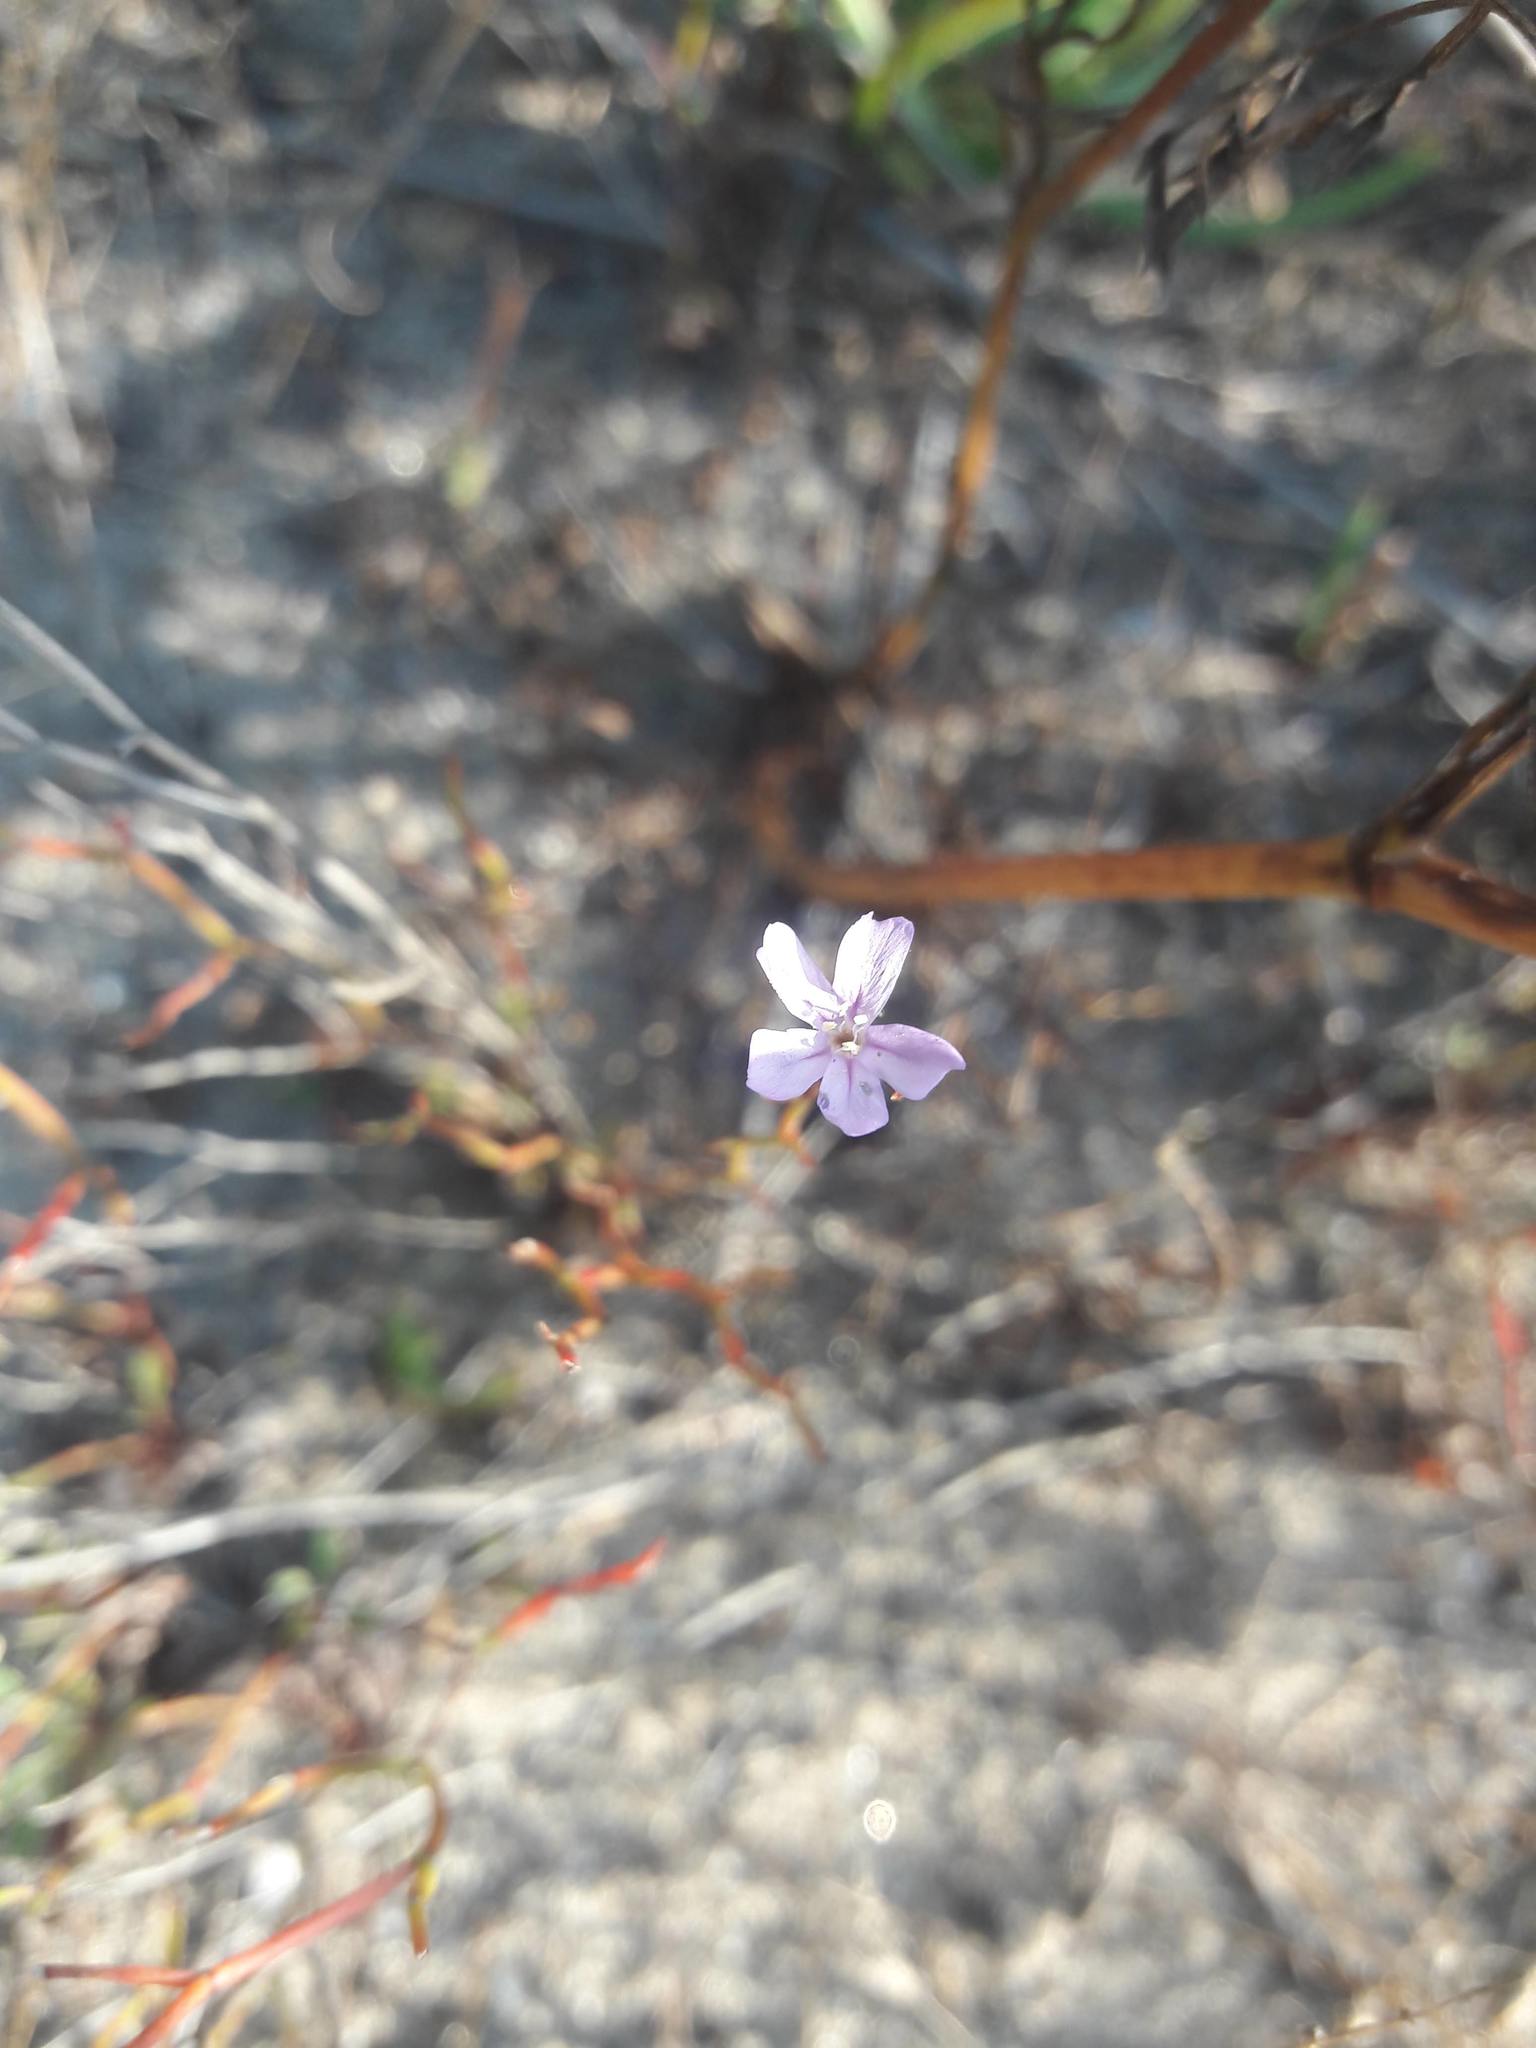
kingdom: Plantae
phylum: Tracheophyta
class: Magnoliopsida
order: Caryophyllales
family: Plumbaginaceae
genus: Limonium
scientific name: Limonium virgatum
